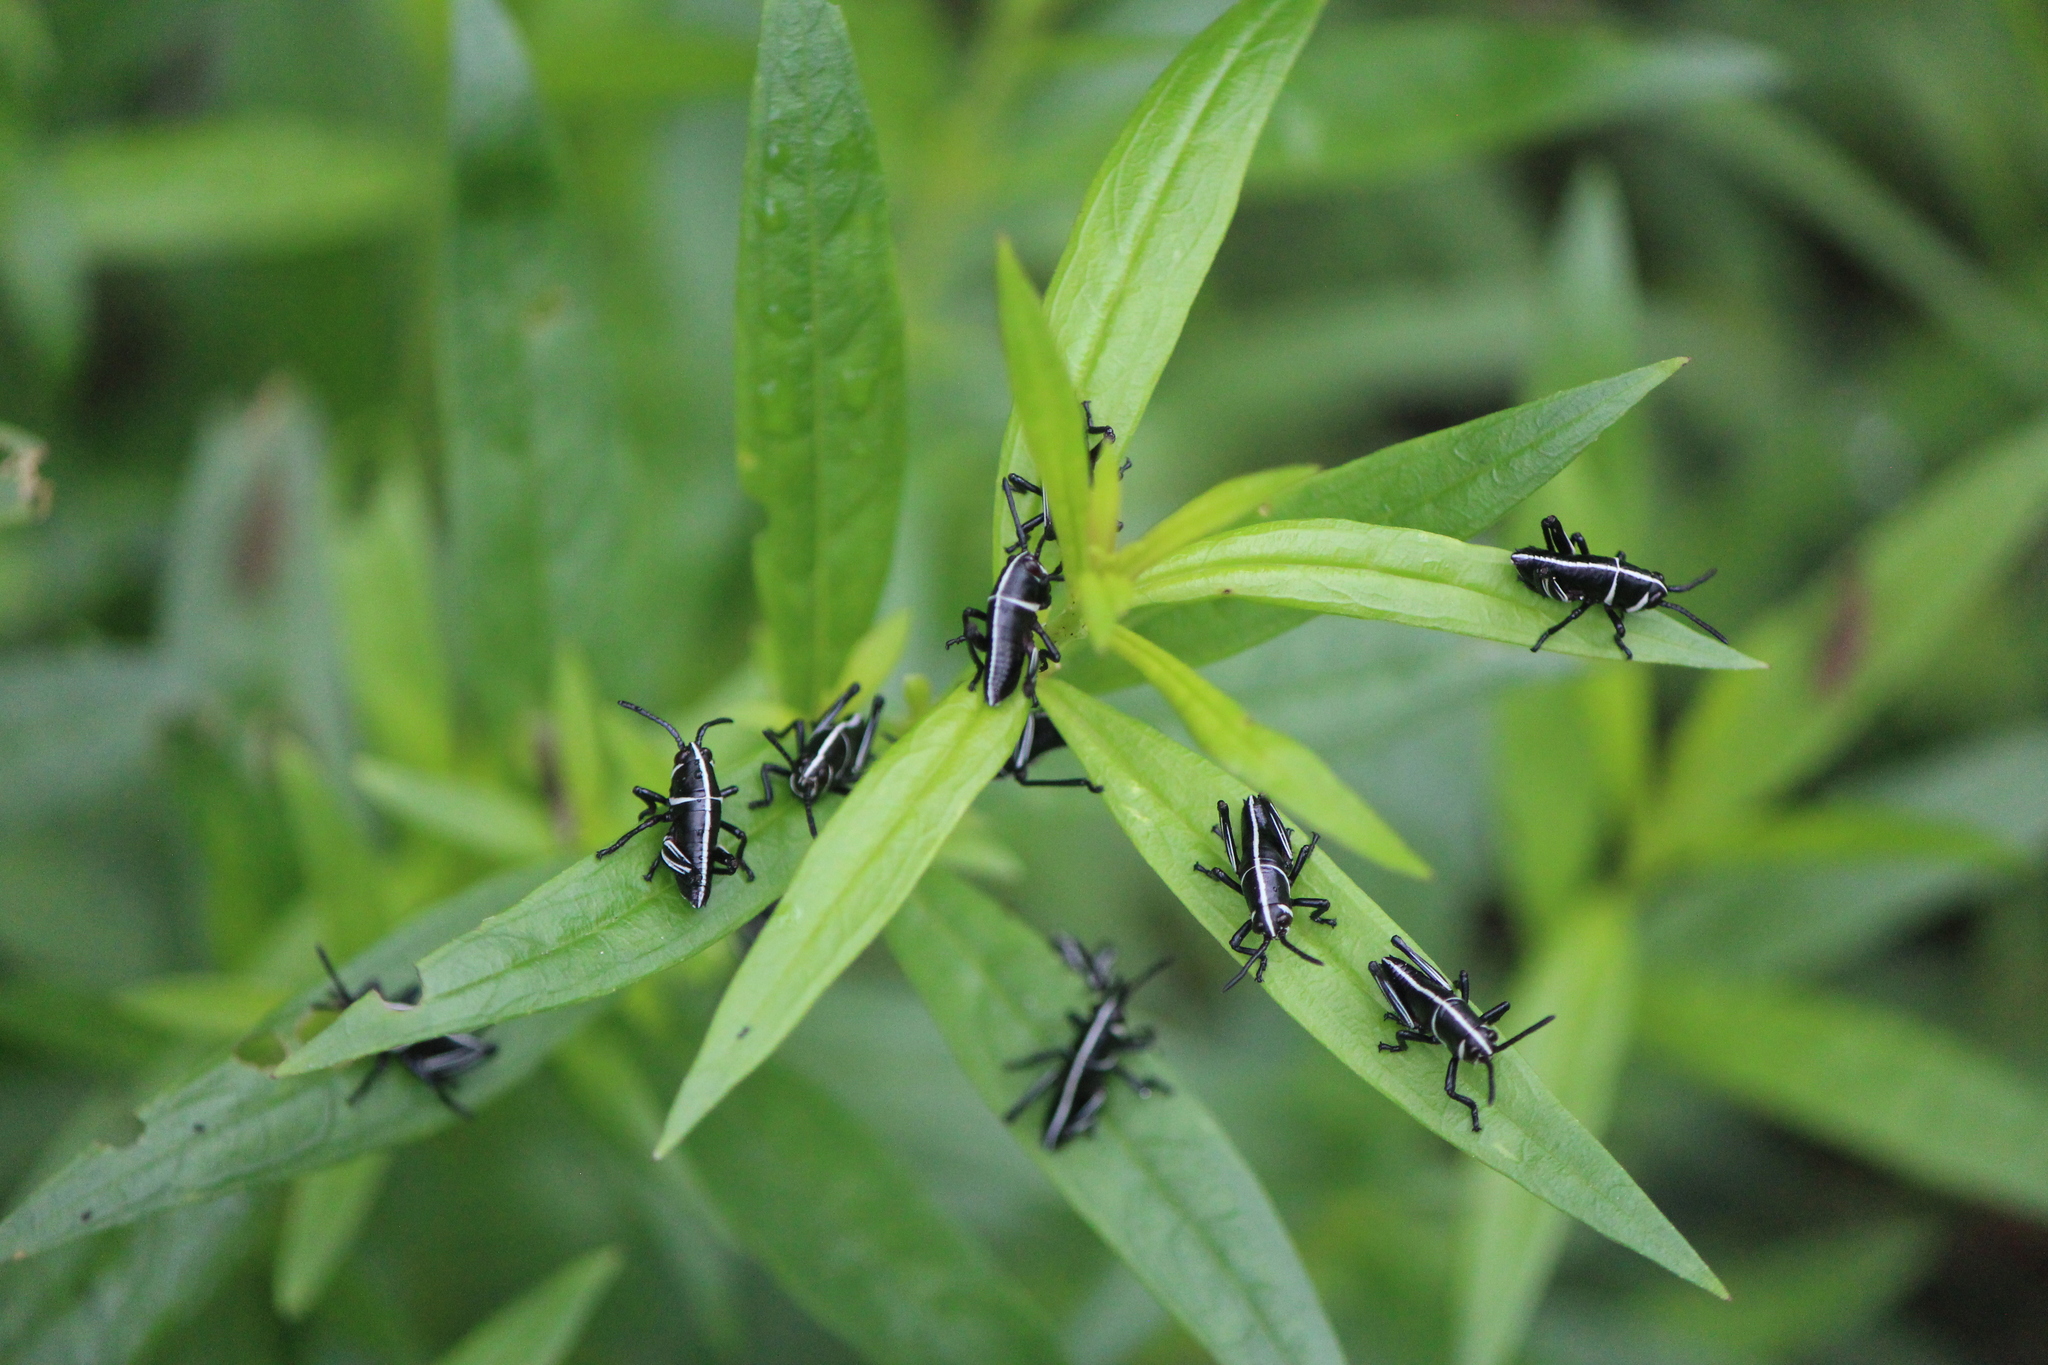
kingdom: Animalia
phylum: Arthropoda
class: Insecta
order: Orthoptera
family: Romaleidae
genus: Romalea
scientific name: Romalea
